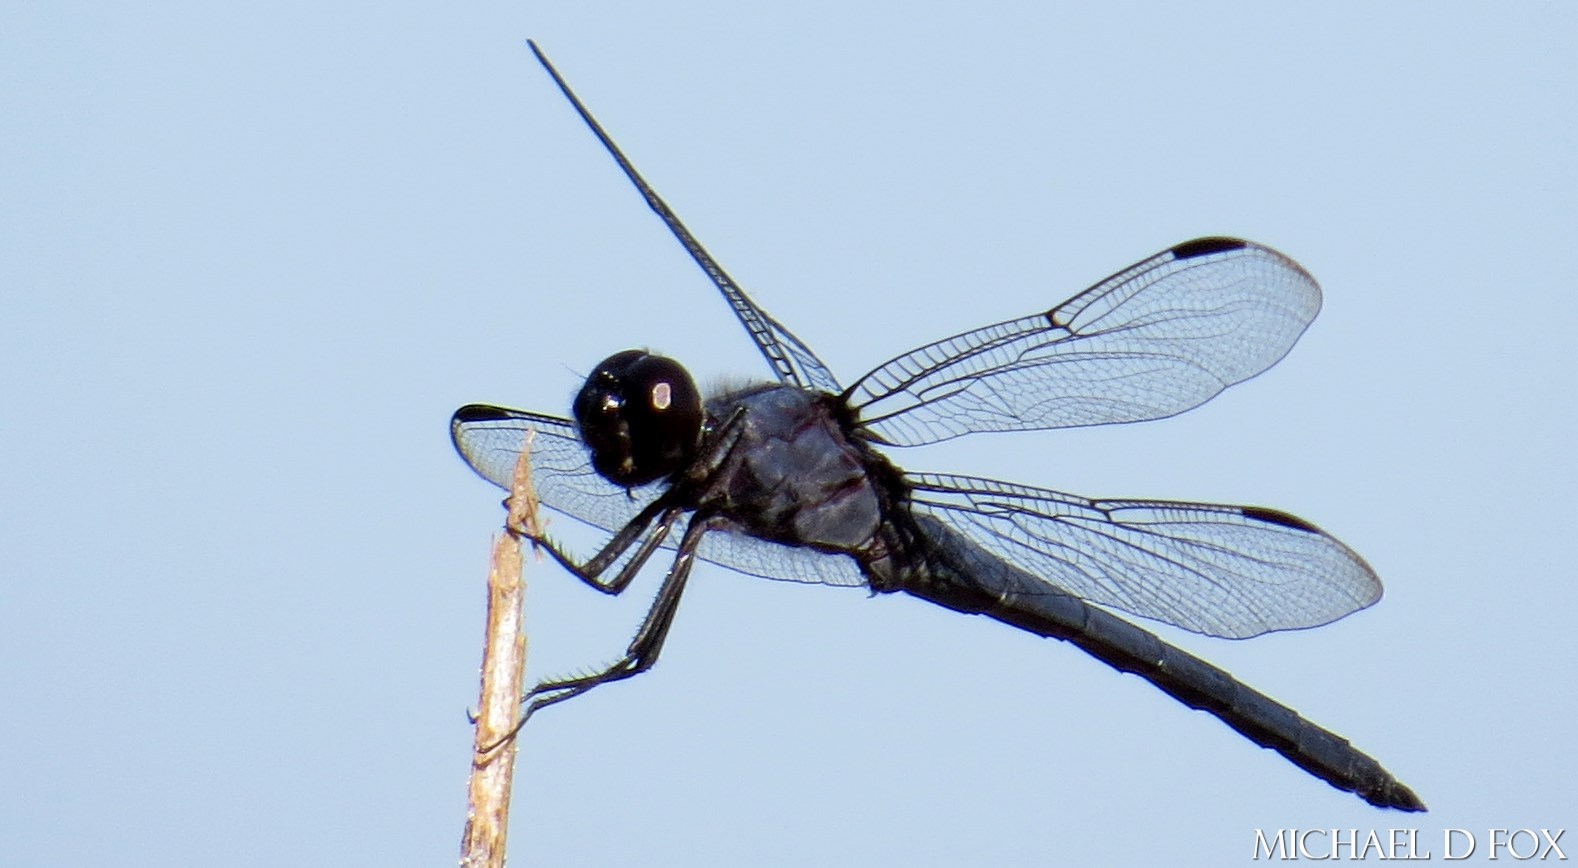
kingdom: Animalia
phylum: Arthropoda
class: Insecta
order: Odonata
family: Libellulidae
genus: Libellula
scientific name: Libellula incesta
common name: Slaty skimmer
